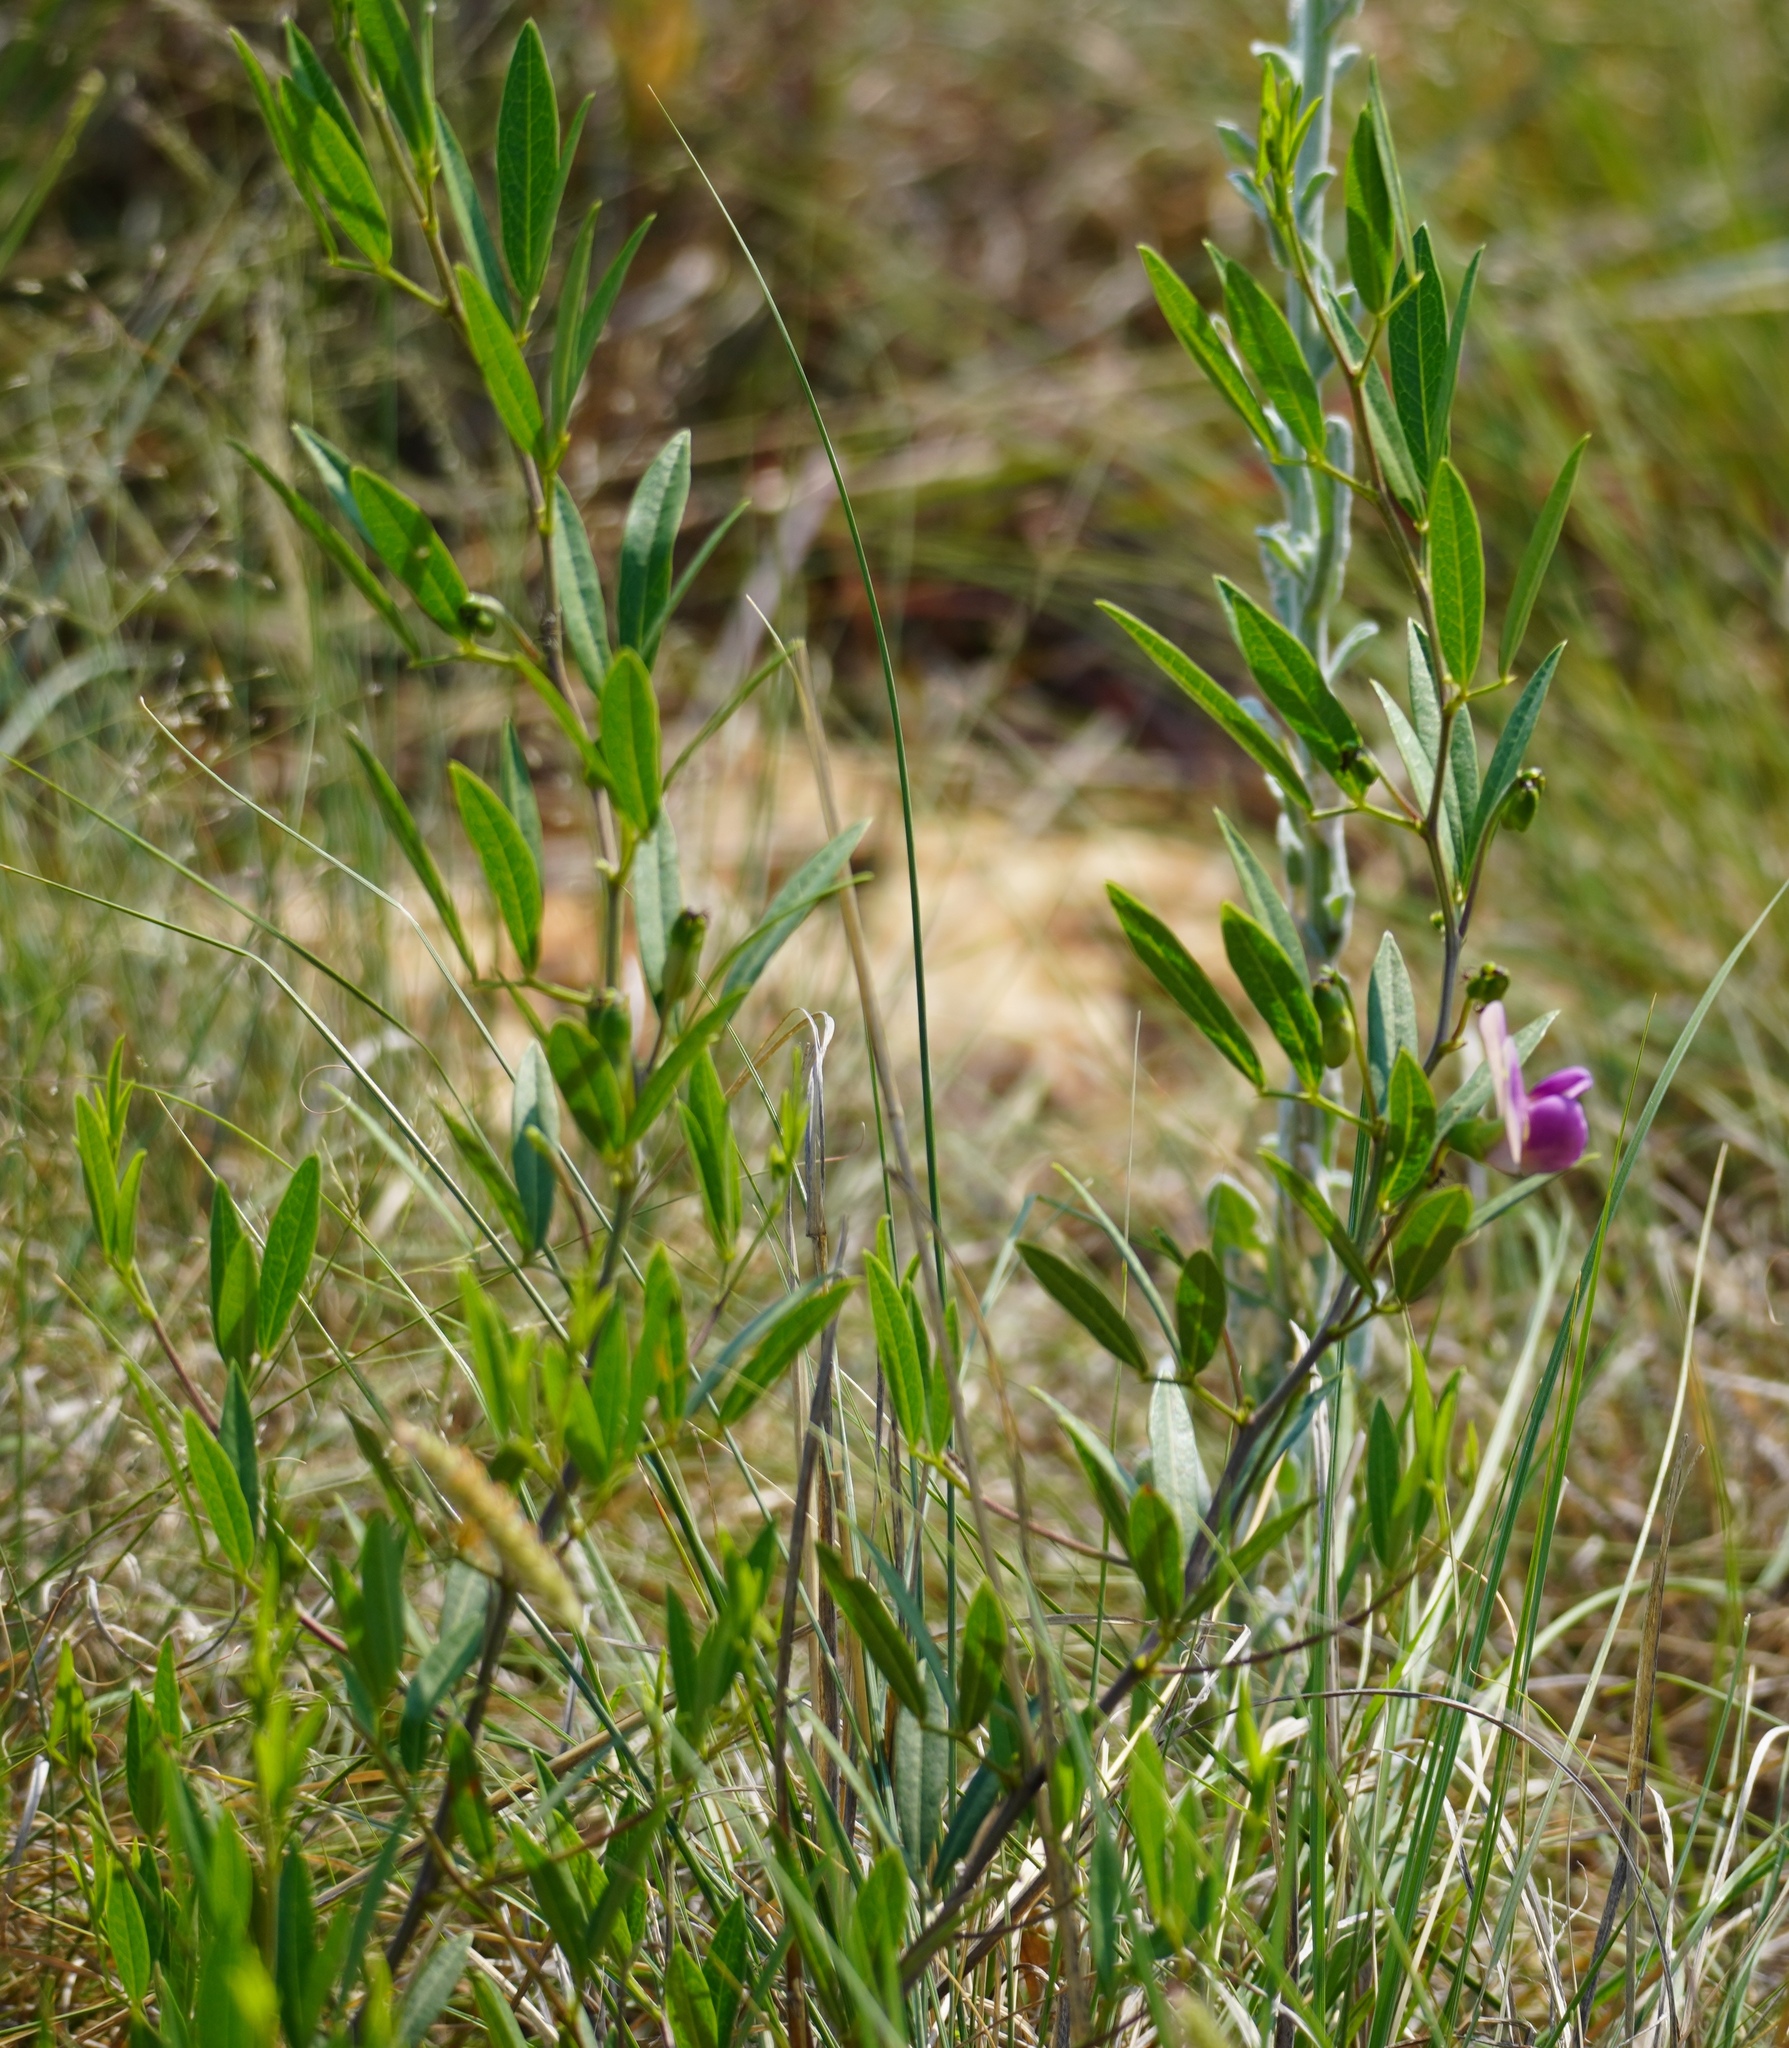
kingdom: Plantae
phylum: Tracheophyta
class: Magnoliopsida
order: Fabales
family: Fabaceae
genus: Sphenostylis
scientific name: Sphenostylis angustifolia
